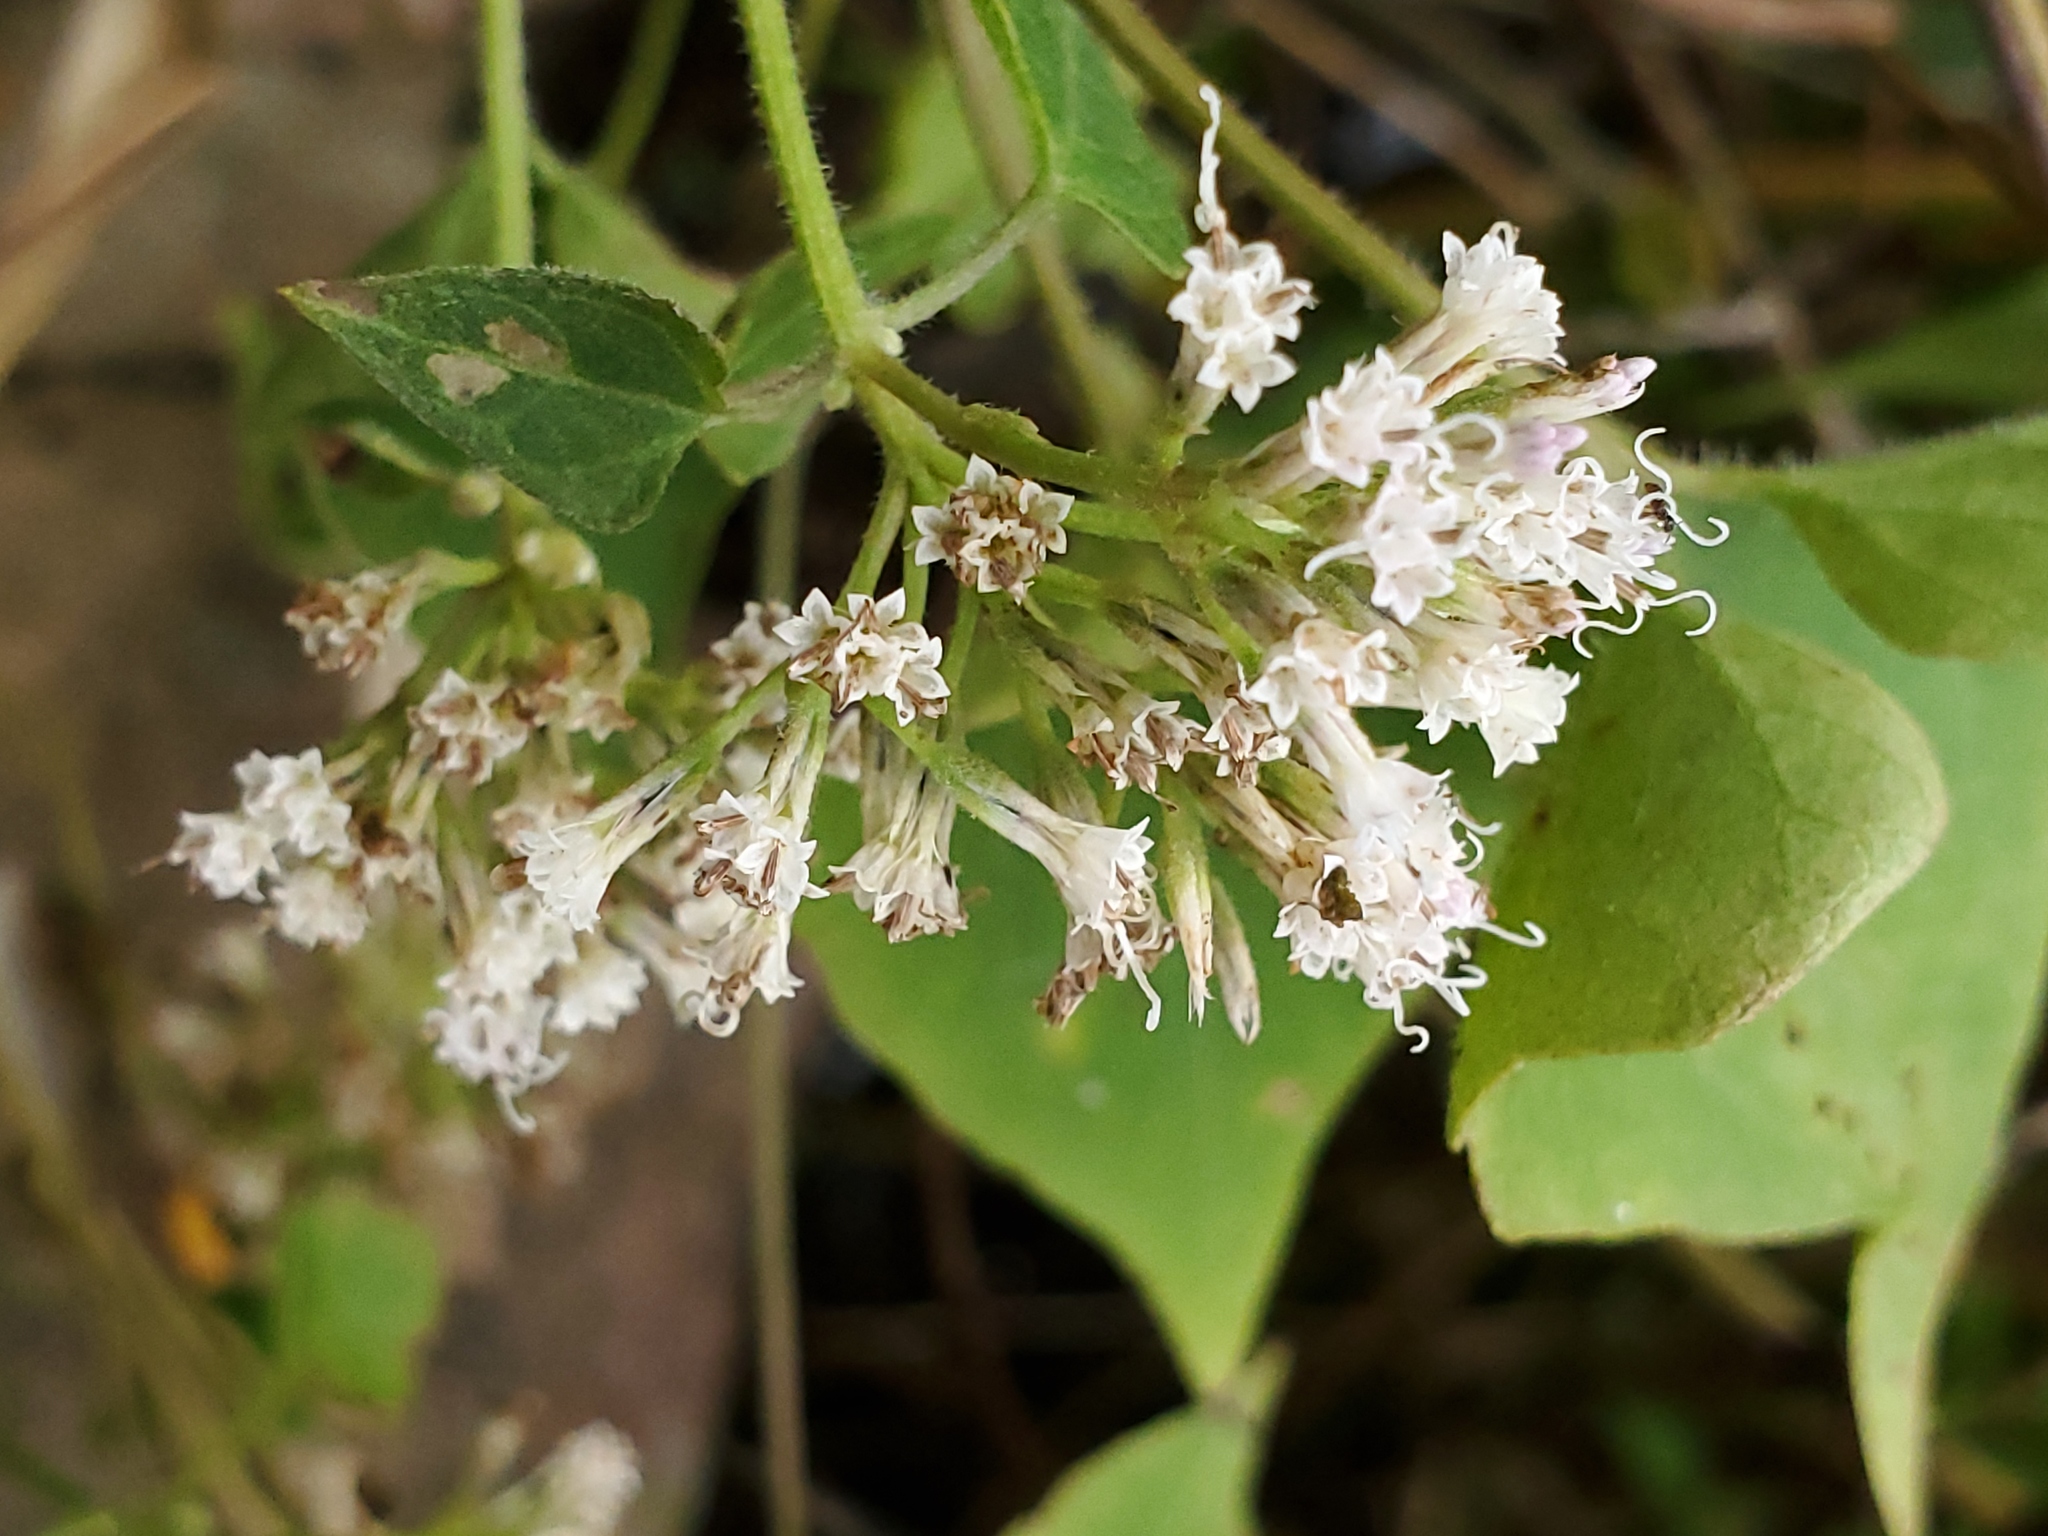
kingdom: Plantae
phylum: Tracheophyta
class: Magnoliopsida
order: Asterales
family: Asteraceae
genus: Mikania
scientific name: Mikania scandens
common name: Climbing hempvine
